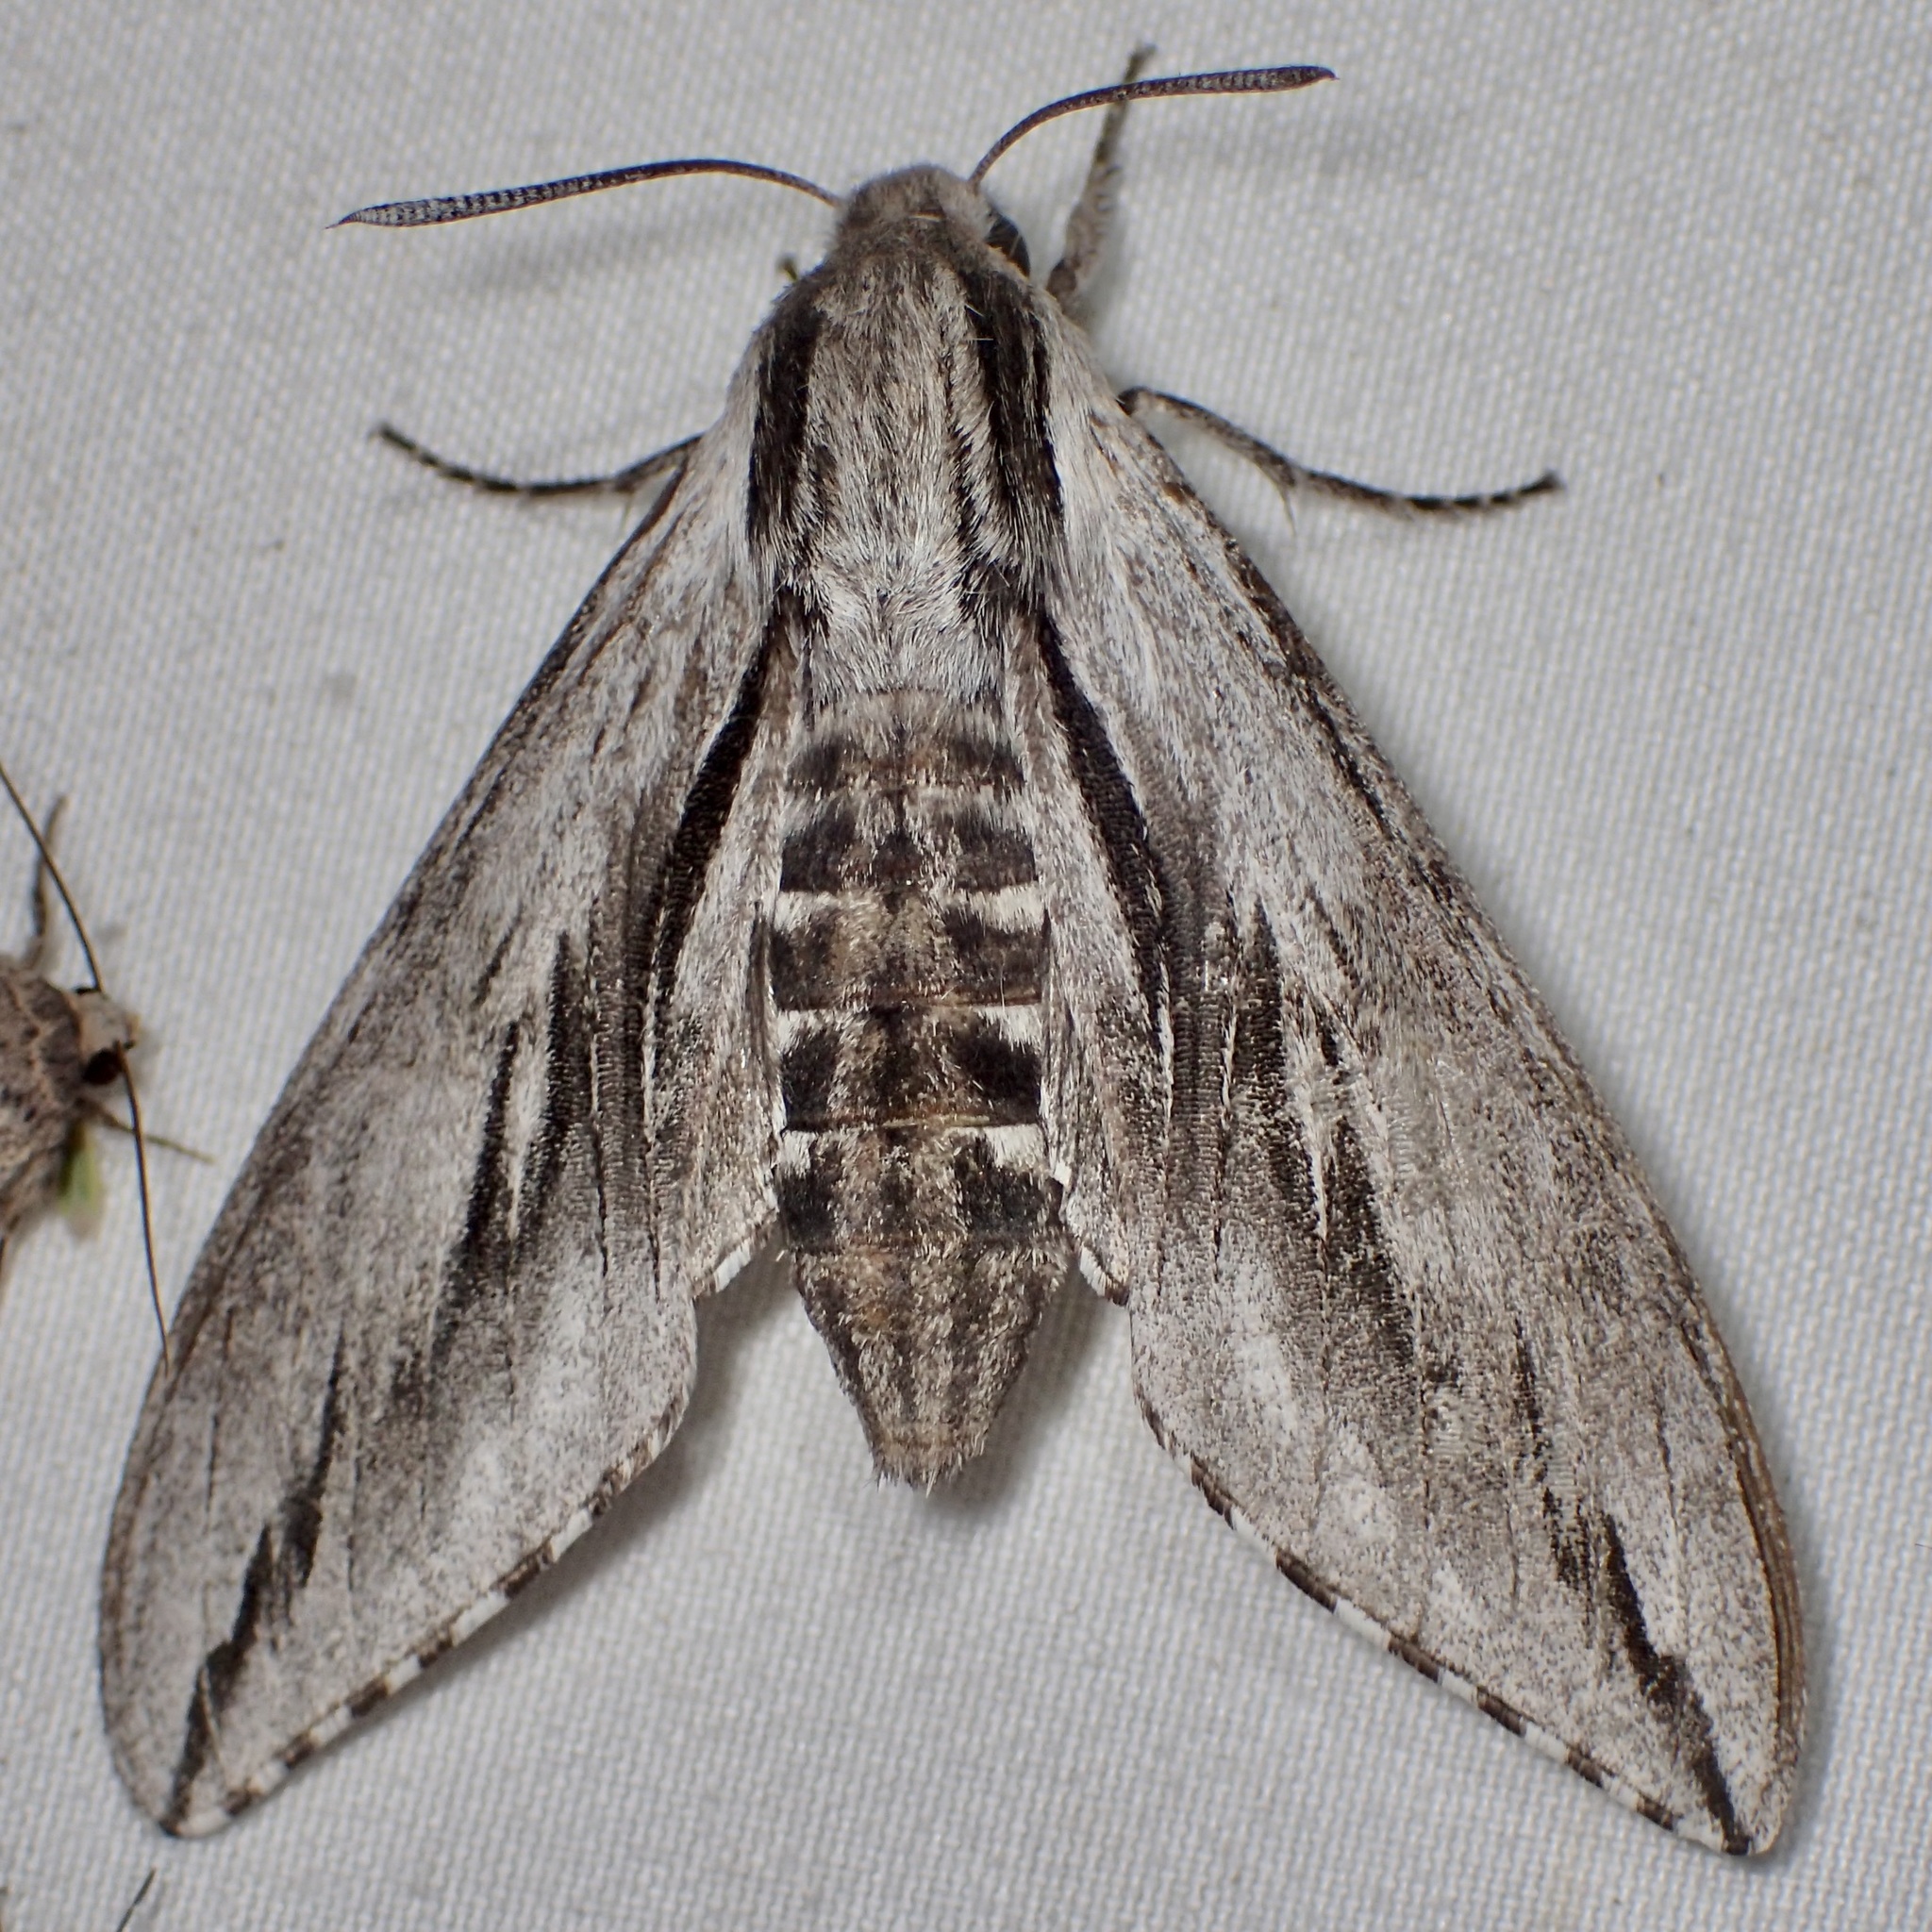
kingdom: Animalia
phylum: Arthropoda
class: Insecta
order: Lepidoptera
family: Sphingidae
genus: Sphinx
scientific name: Sphinx dollii
